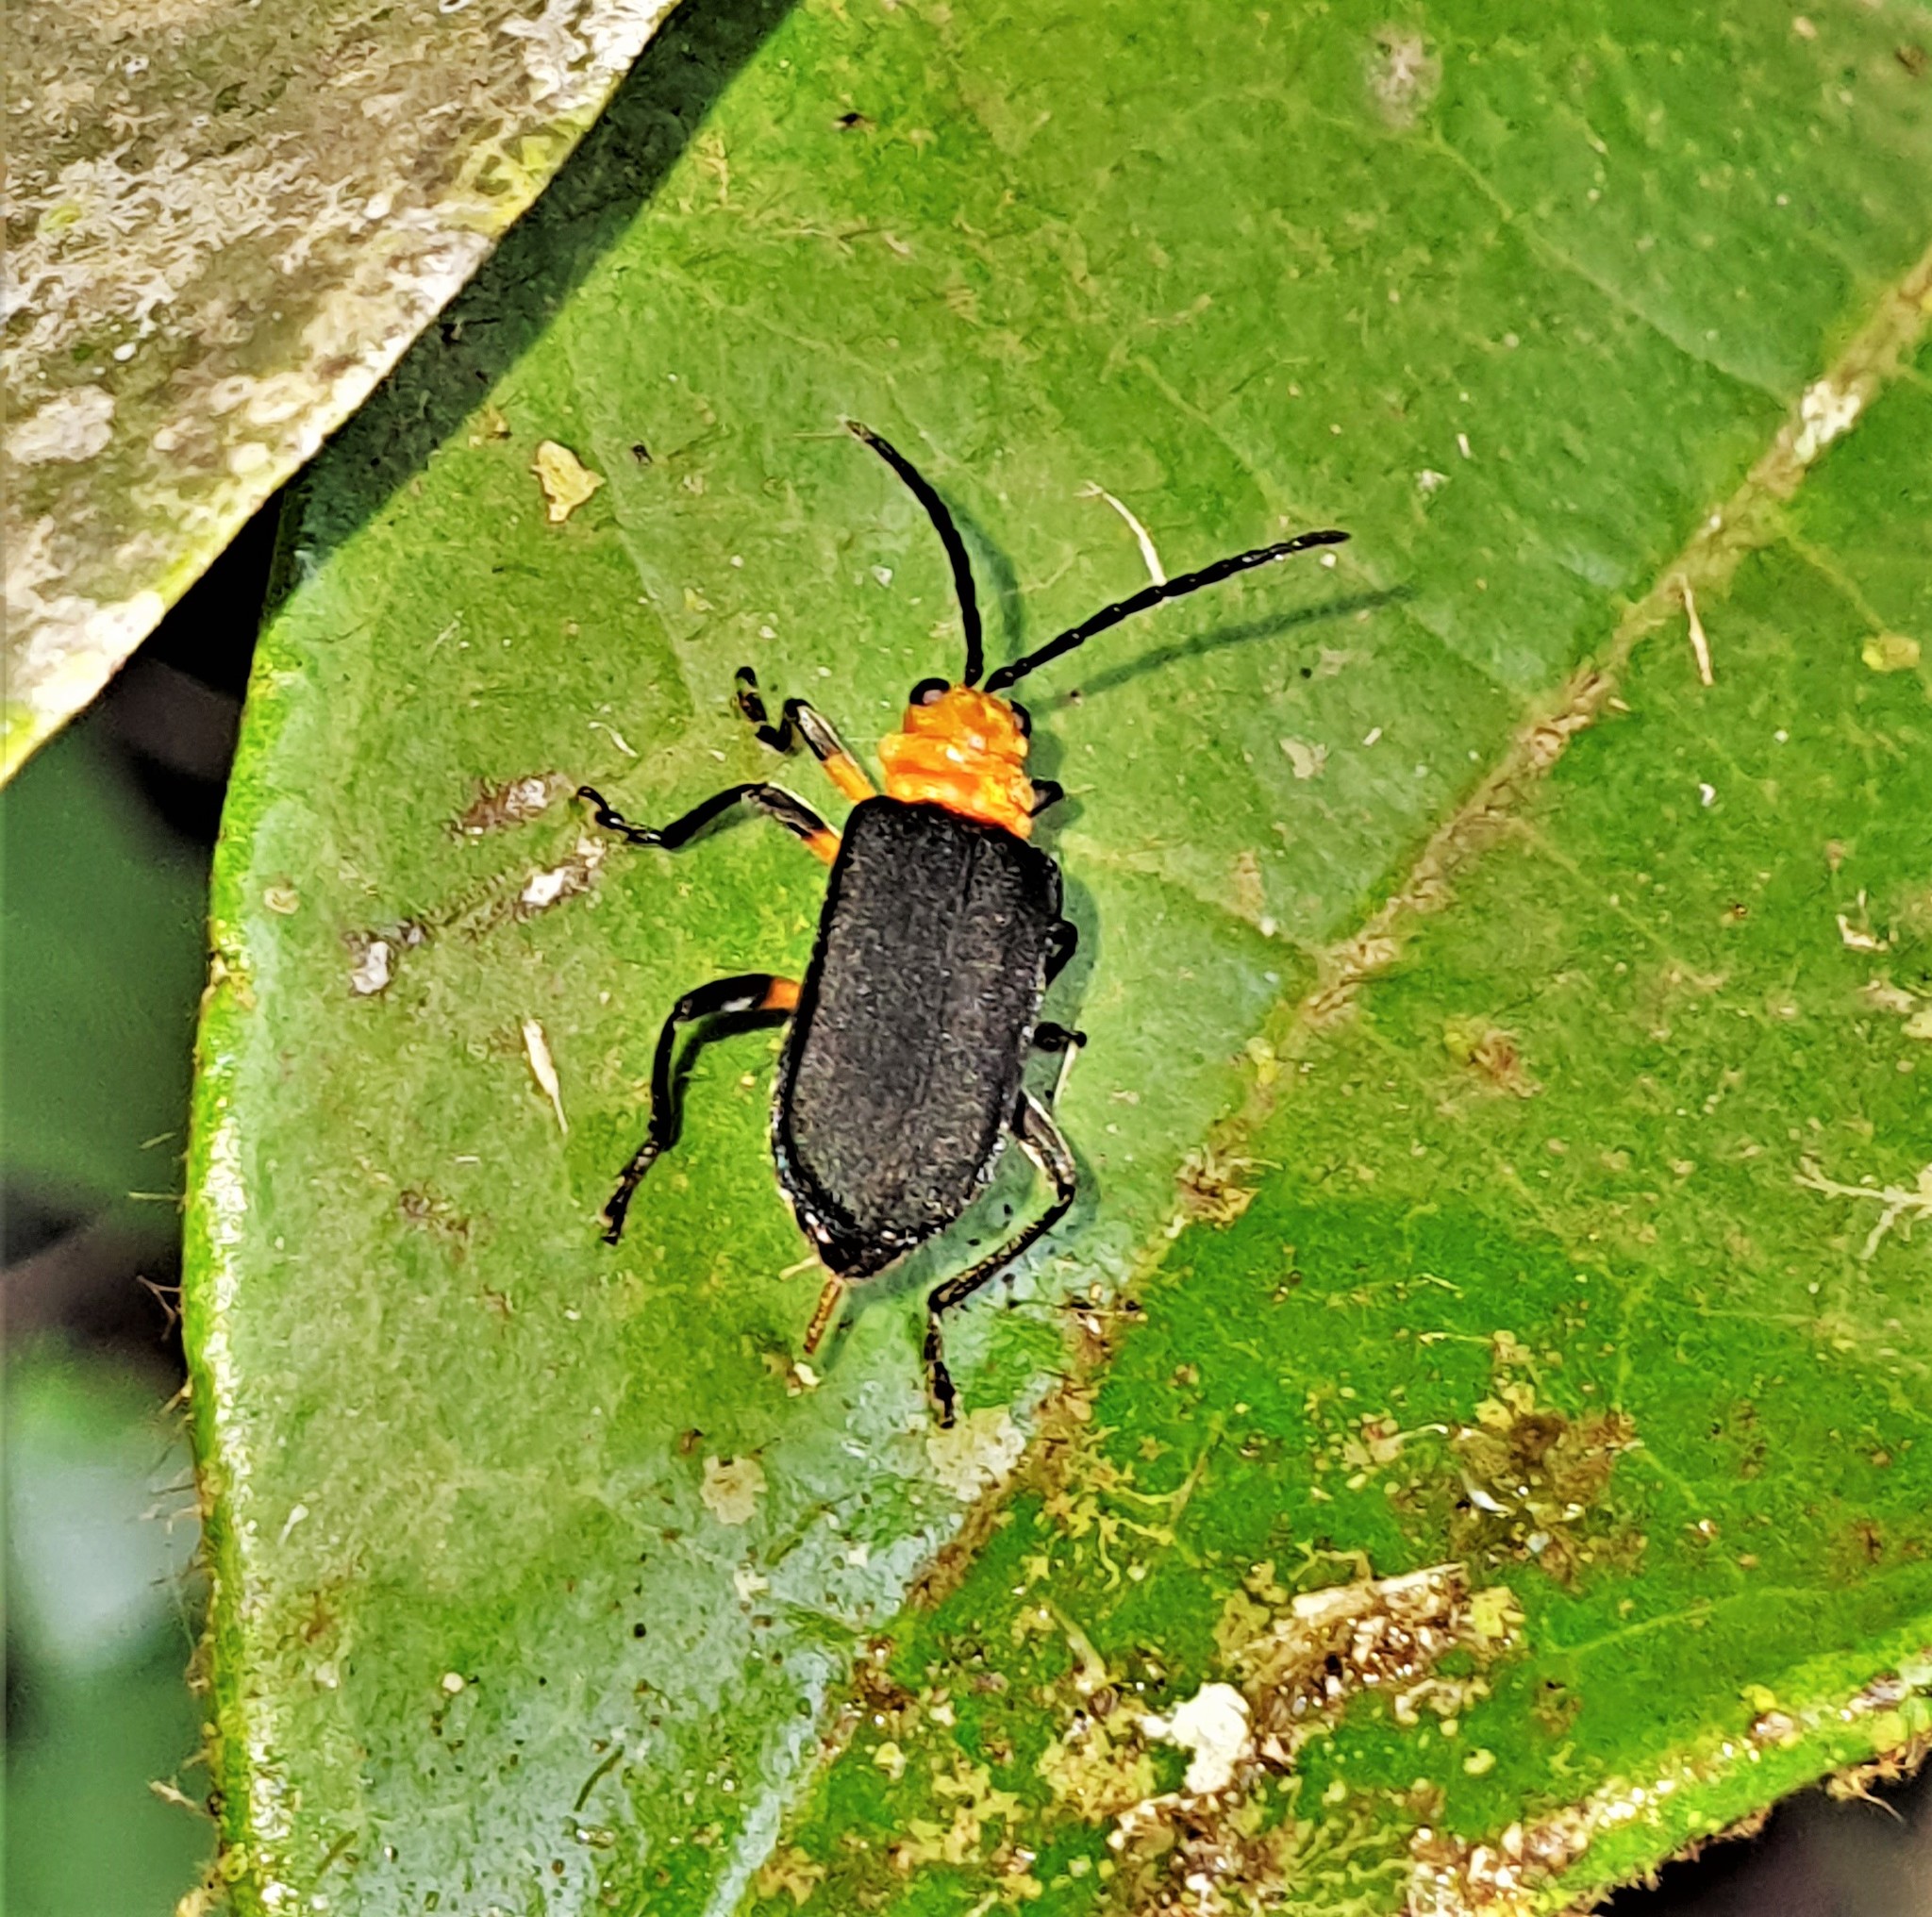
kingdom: Animalia
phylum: Arthropoda
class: Insecta
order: Coleoptera
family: Chrysomelidae
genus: Dircema
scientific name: Dircema ruficrus
